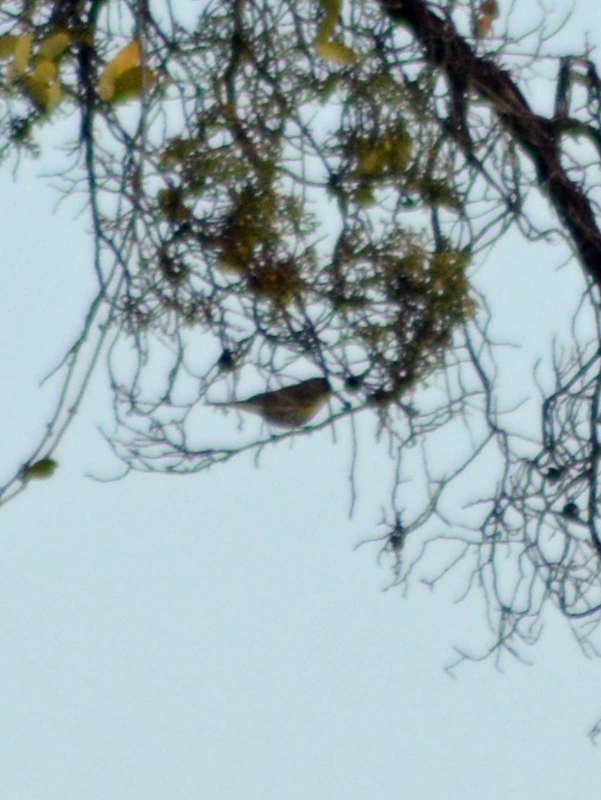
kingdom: Animalia
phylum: Chordata
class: Aves
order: Passeriformes
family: Parulidae
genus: Setophaga
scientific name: Setophaga coronata
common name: Myrtle warbler
